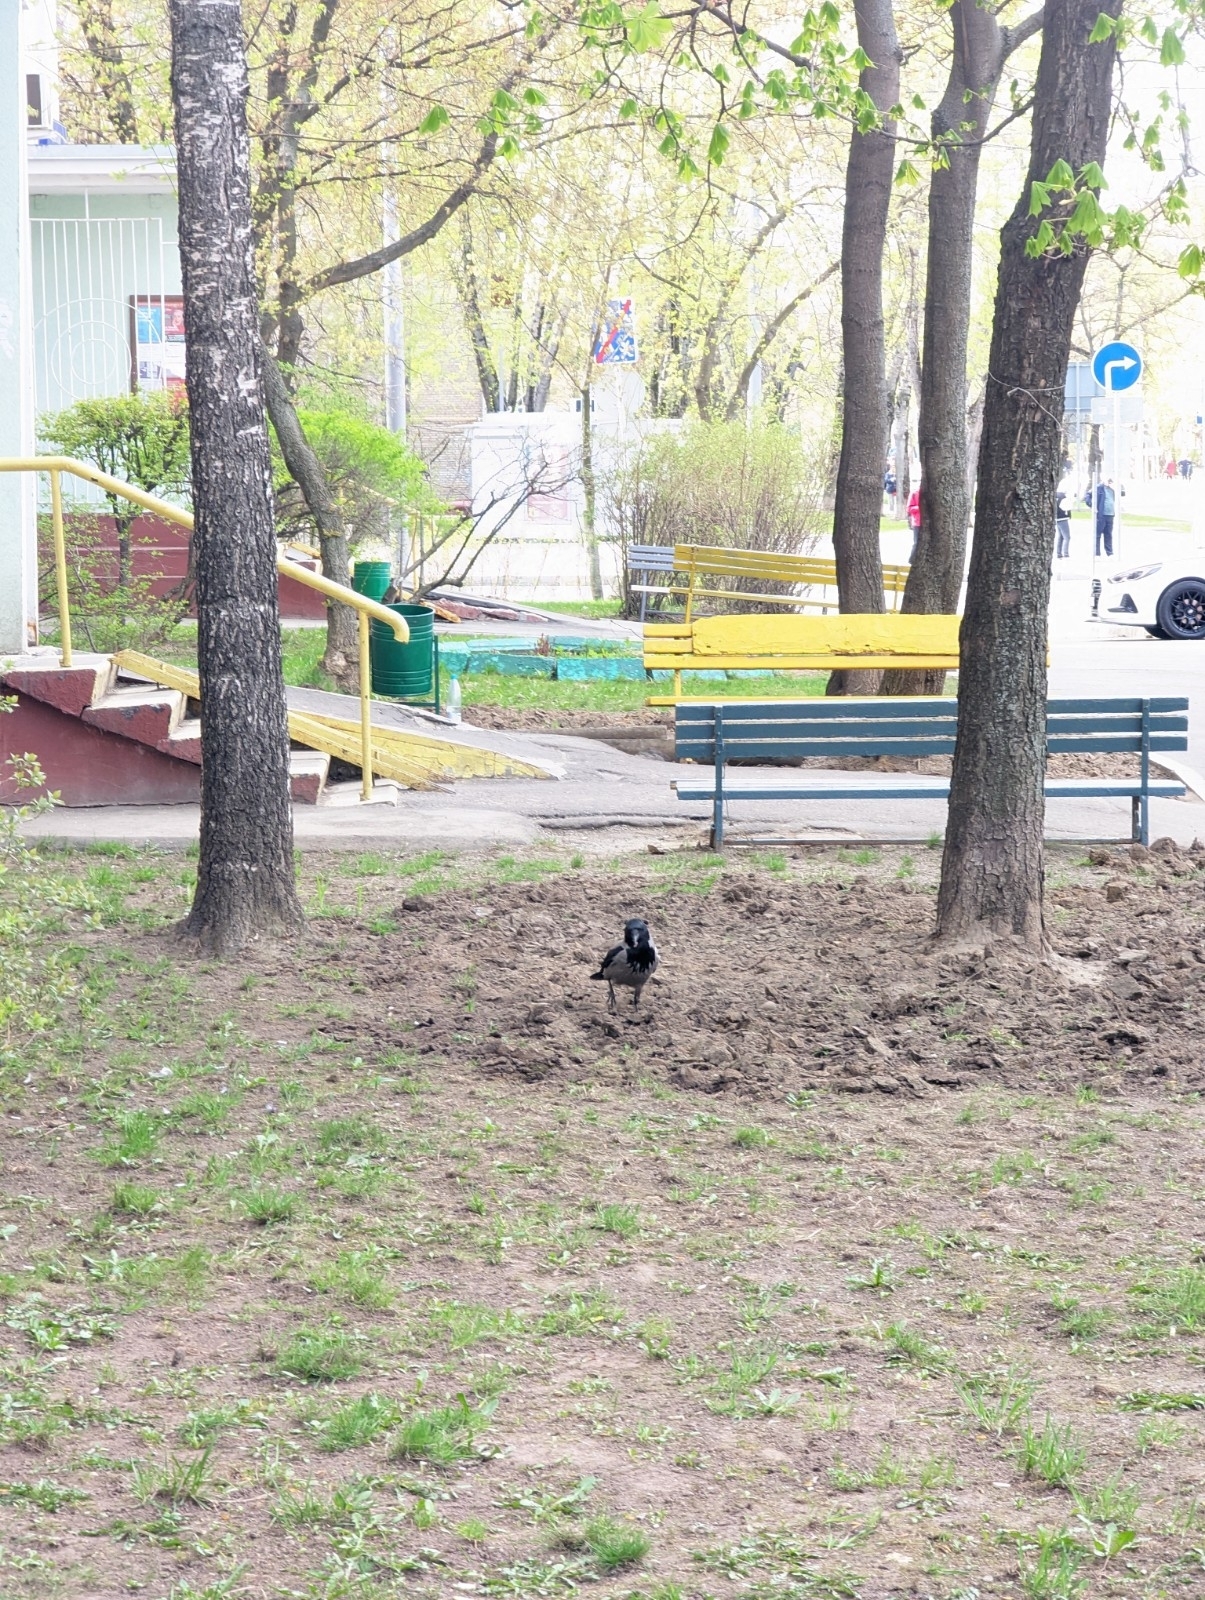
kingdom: Animalia
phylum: Chordata
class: Aves
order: Passeriformes
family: Corvidae
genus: Corvus
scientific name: Corvus cornix
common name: Hooded crow
